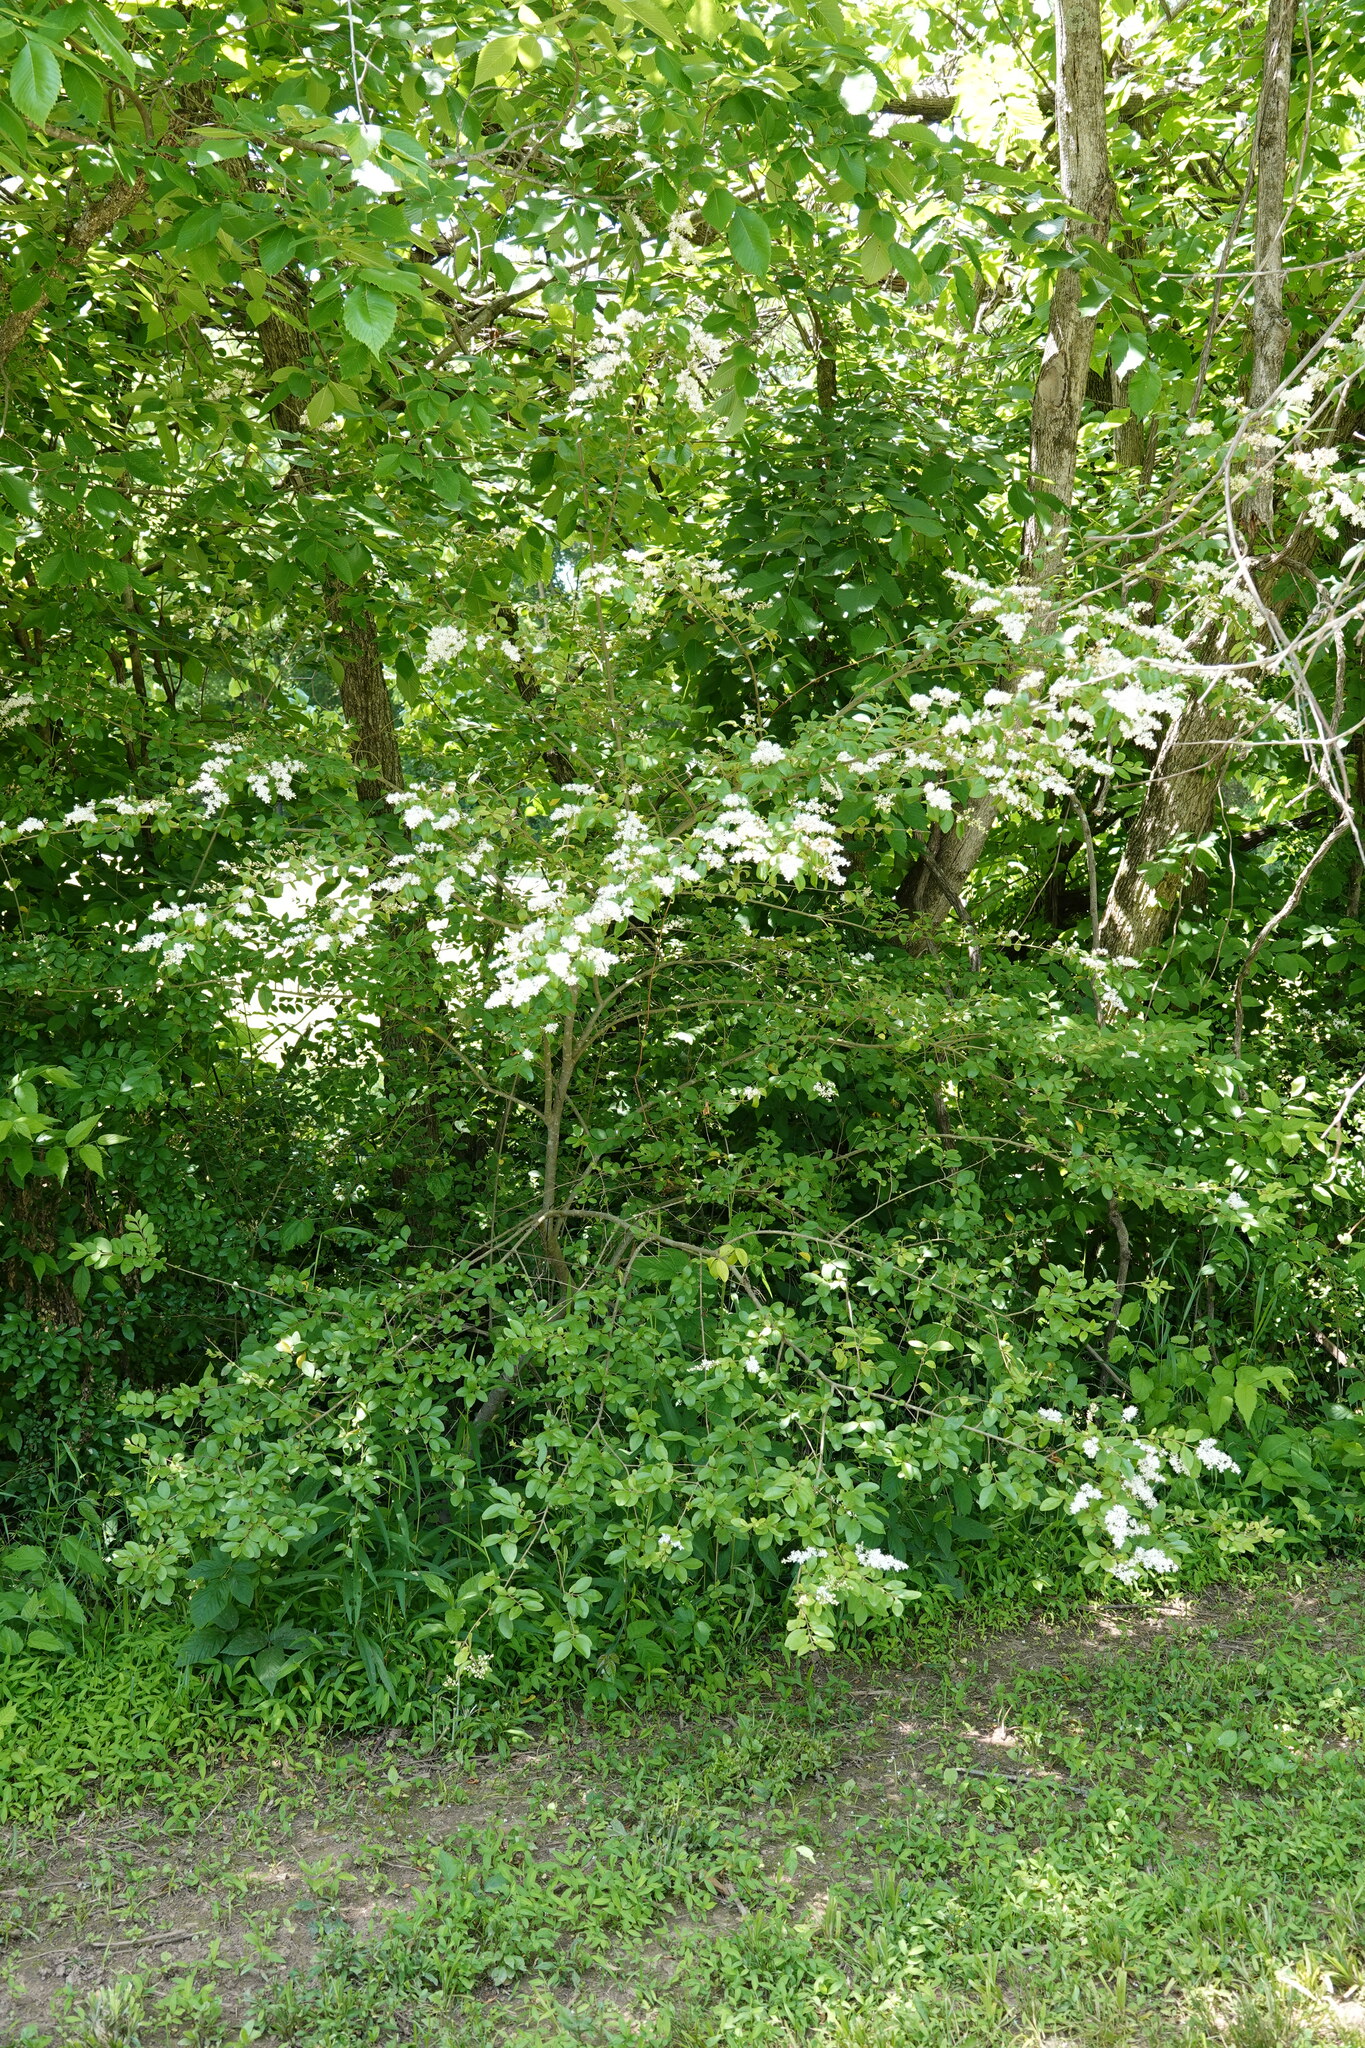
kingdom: Plantae
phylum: Tracheophyta
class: Magnoliopsida
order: Lamiales
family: Oleaceae
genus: Ligustrum
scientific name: Ligustrum sinense
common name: Chinese privet
